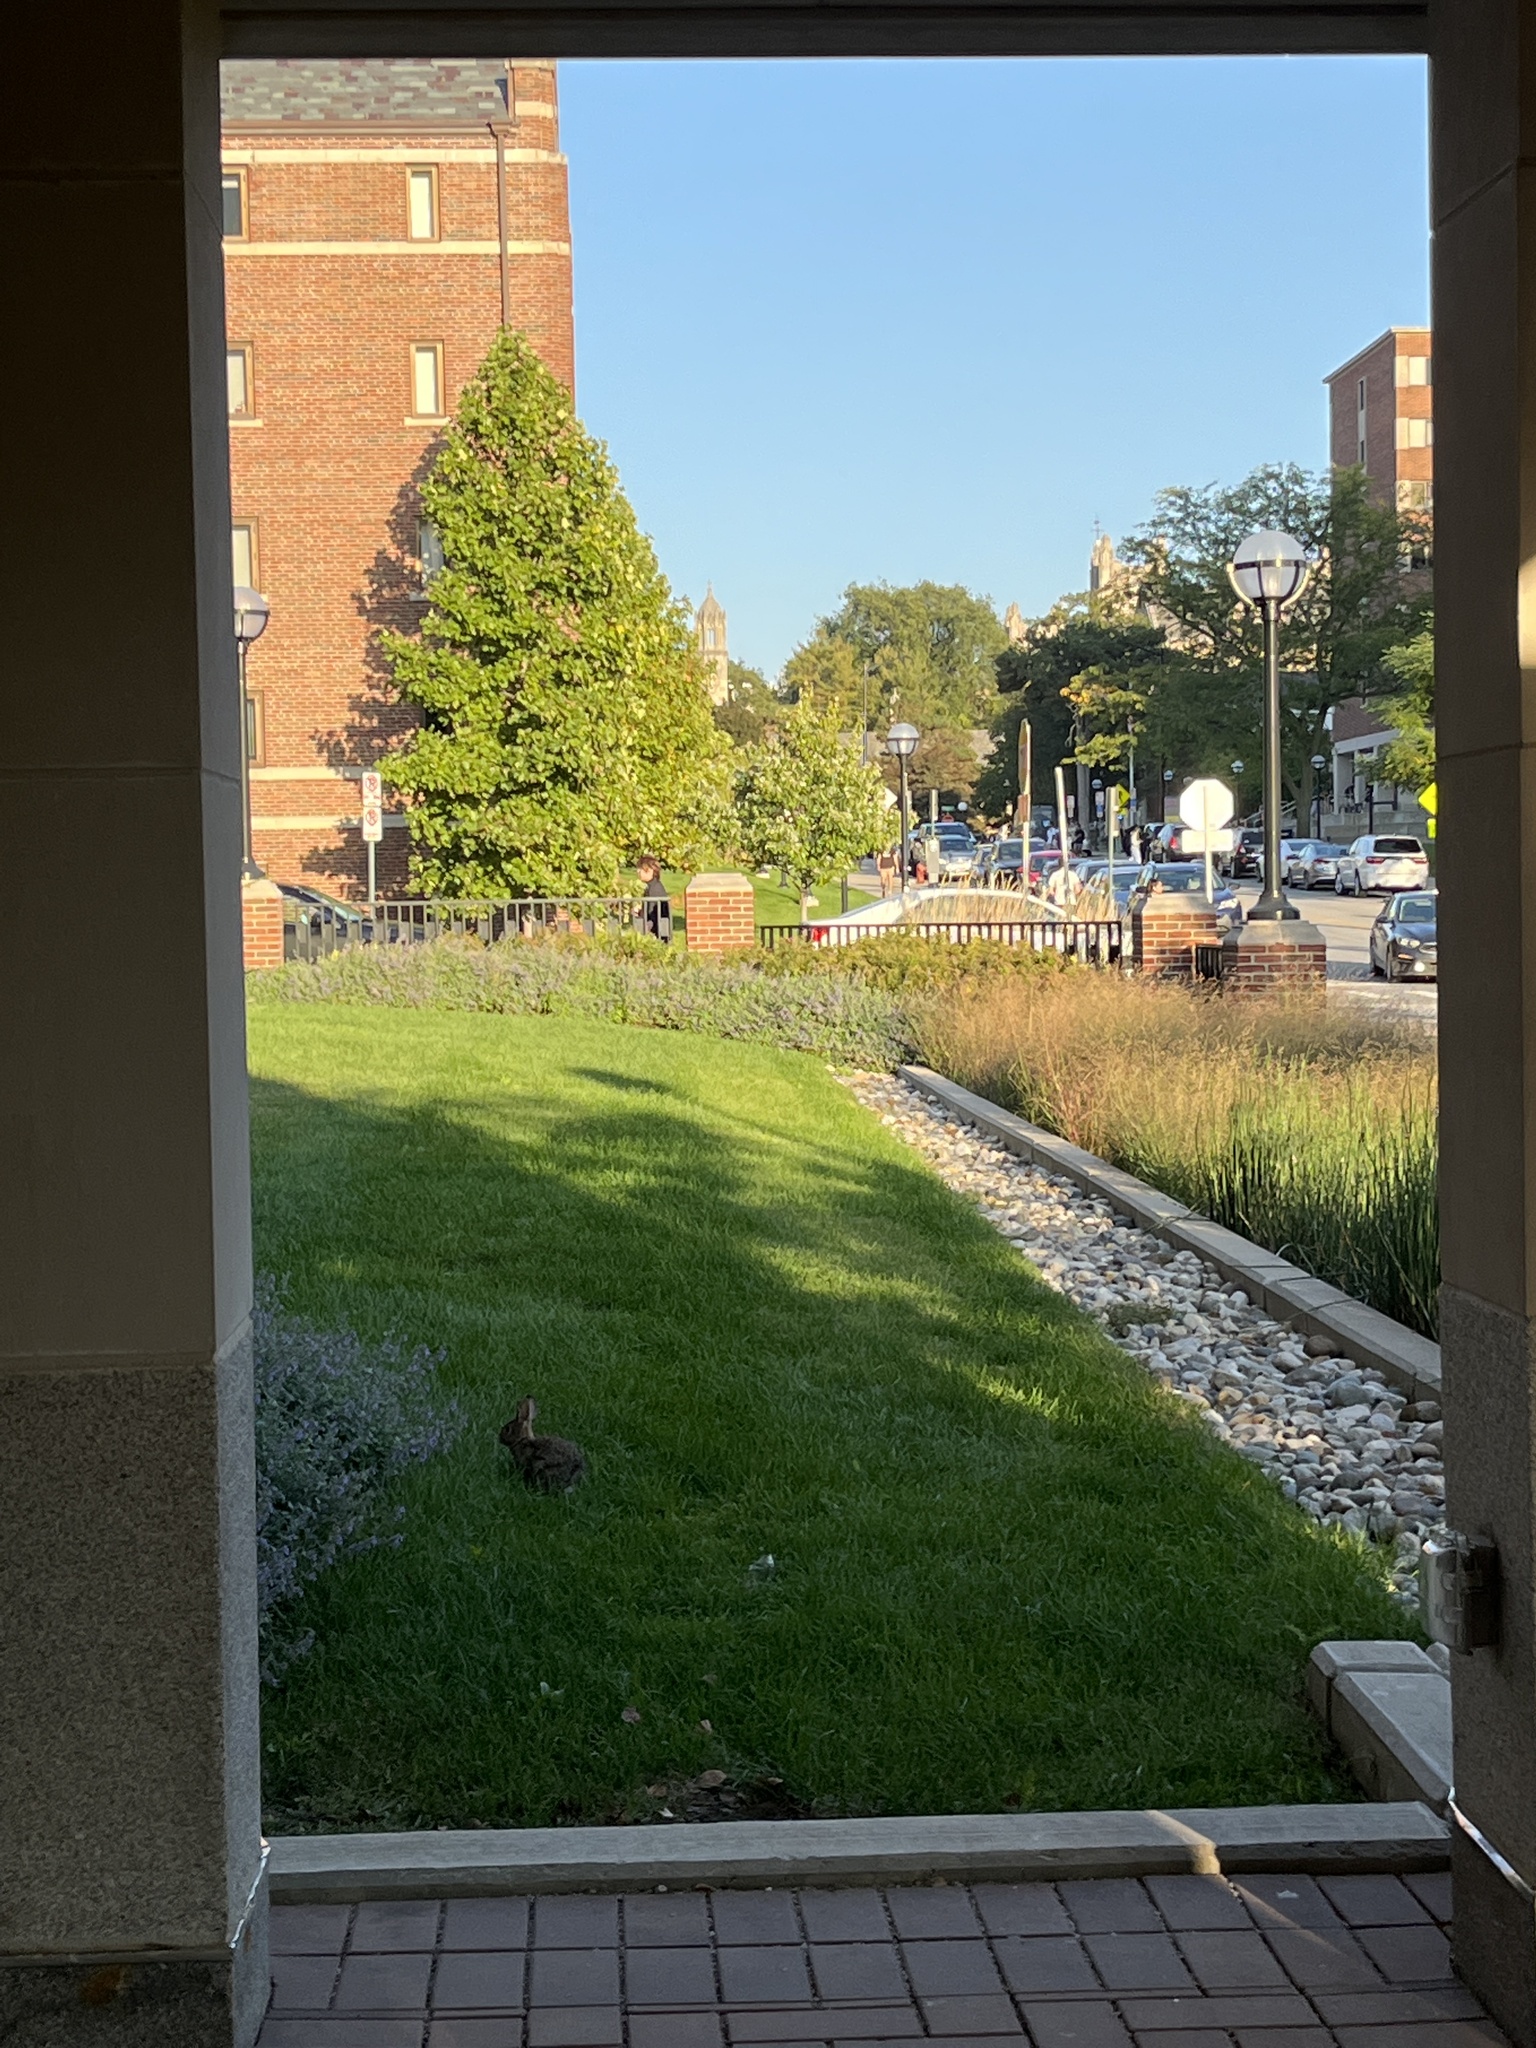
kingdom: Animalia
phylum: Chordata
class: Mammalia
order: Lagomorpha
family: Leporidae
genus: Sylvilagus
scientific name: Sylvilagus floridanus
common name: Eastern cottontail
